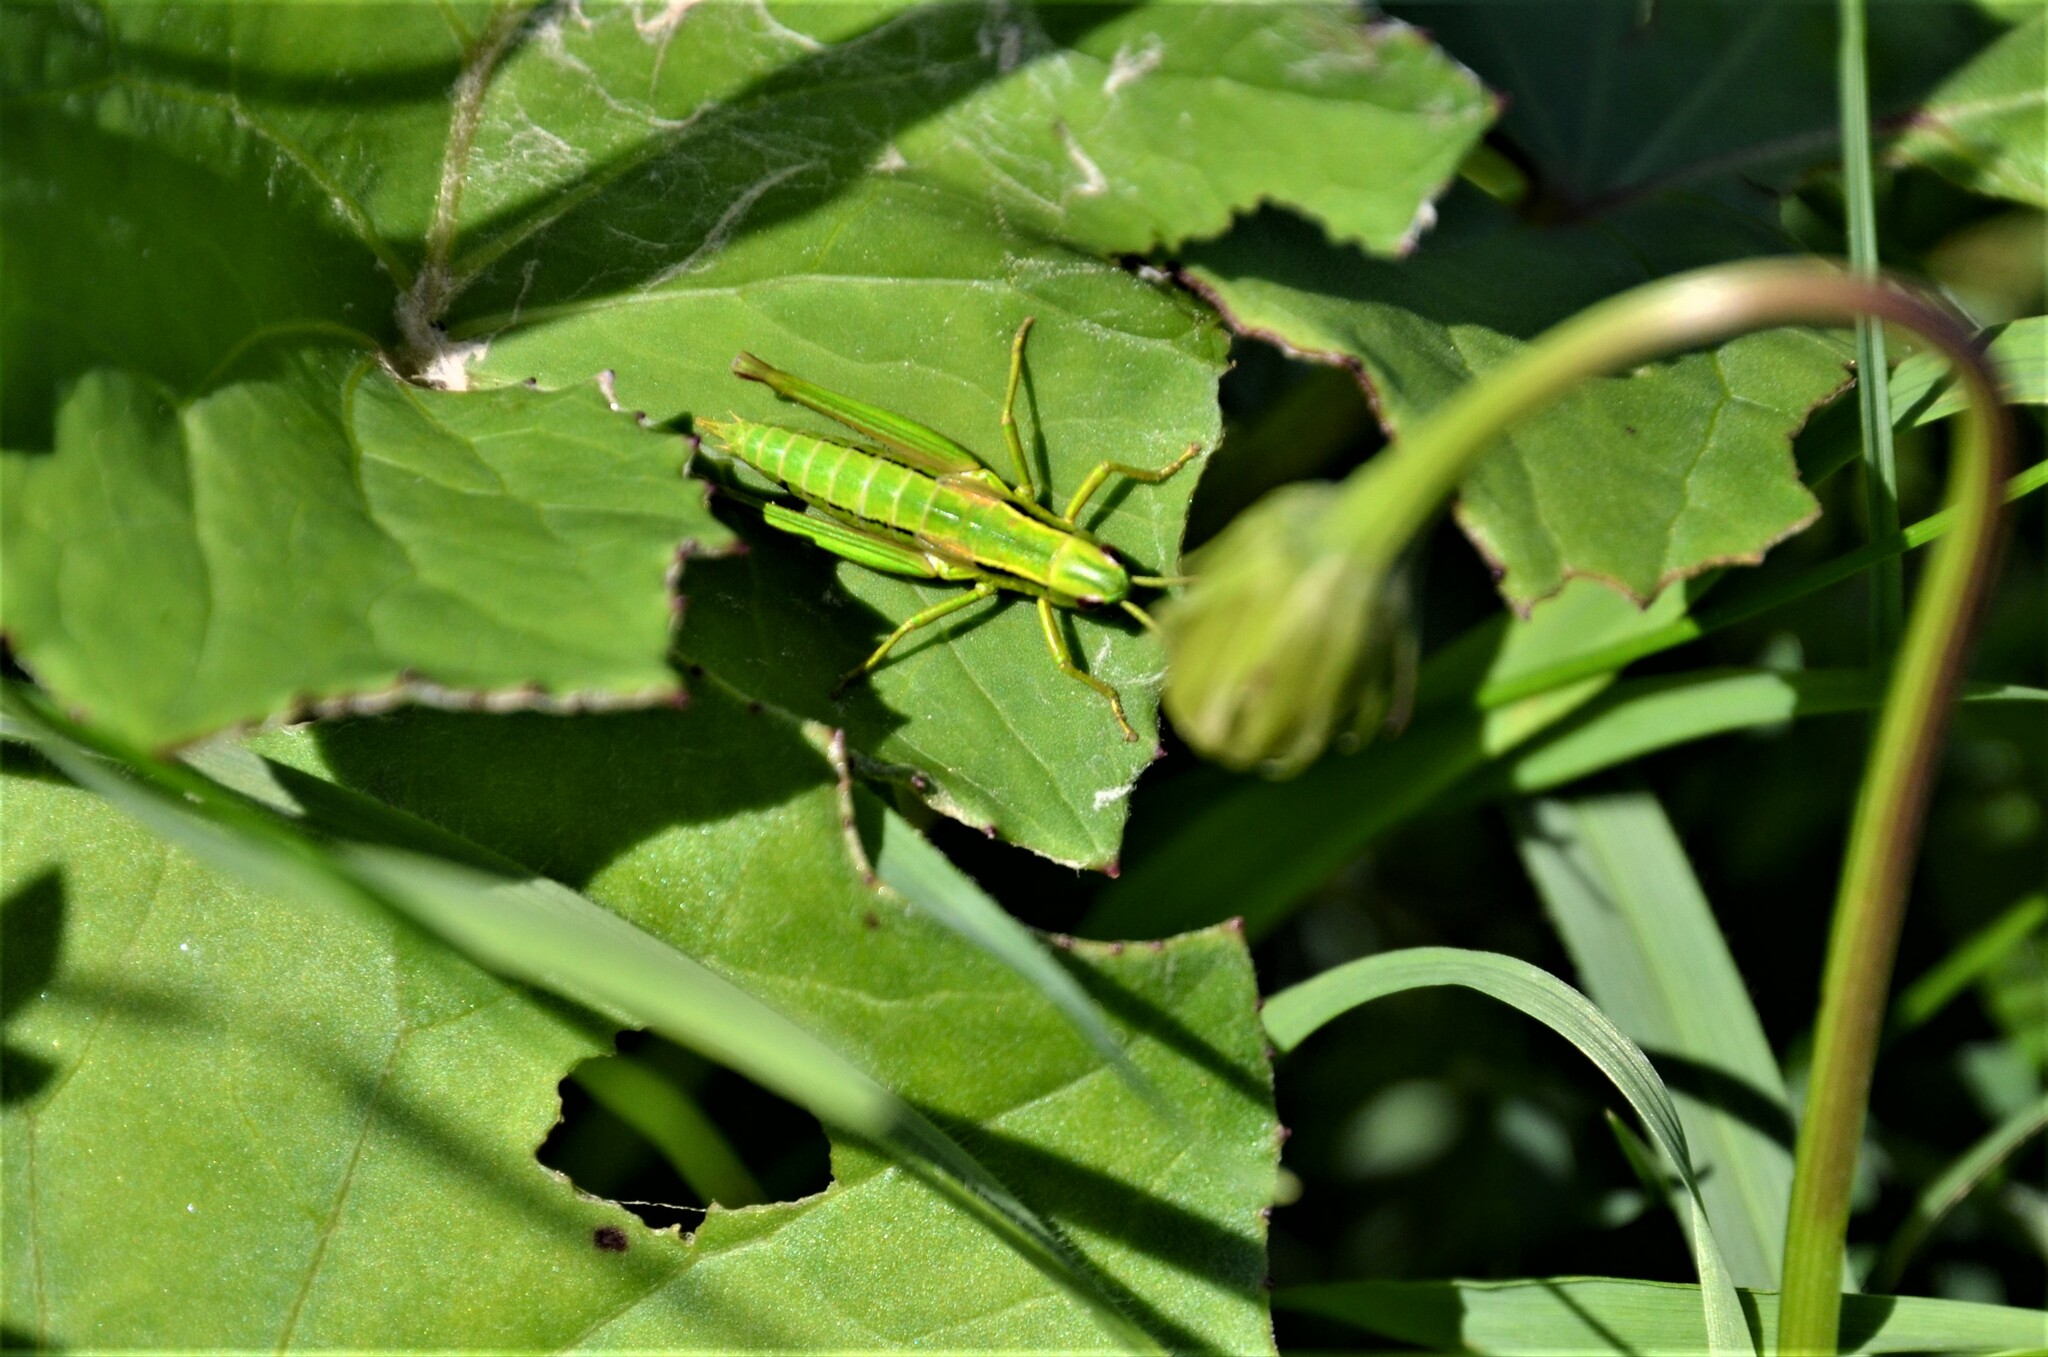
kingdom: Animalia
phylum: Arthropoda
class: Insecta
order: Orthoptera
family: Acrididae
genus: Euthystira
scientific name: Euthystira brachyptera
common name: Small gold grasshopper
